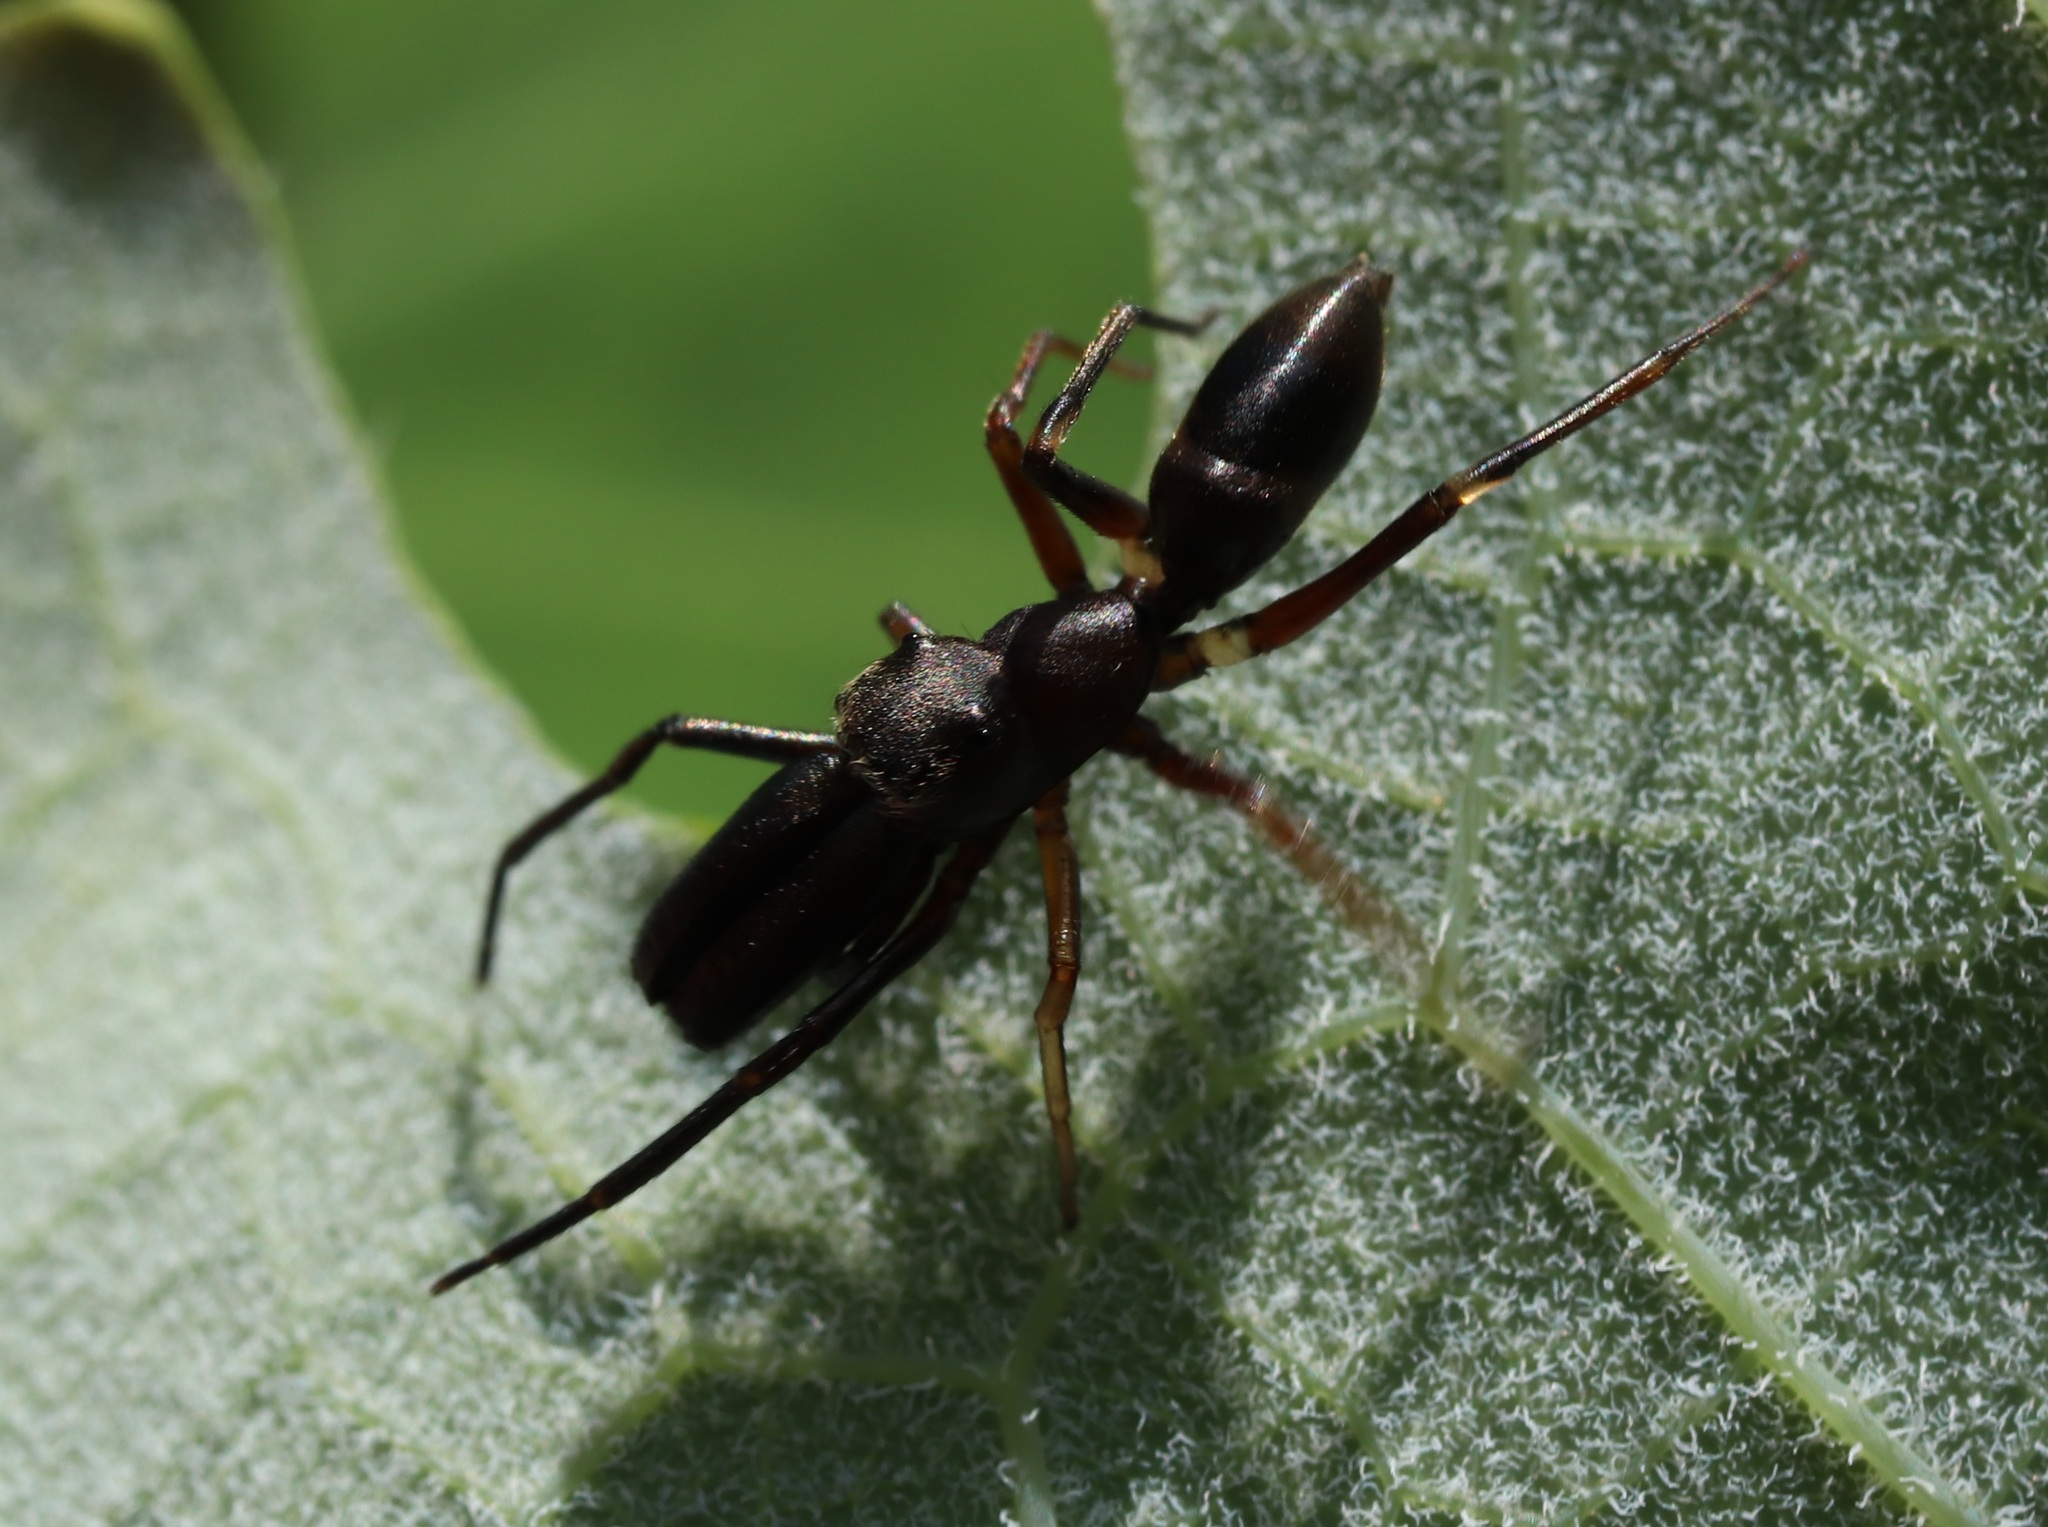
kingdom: Animalia
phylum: Arthropoda
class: Arachnida
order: Araneae
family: Salticidae
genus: Myrmarachne
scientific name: Myrmarachne japonica
